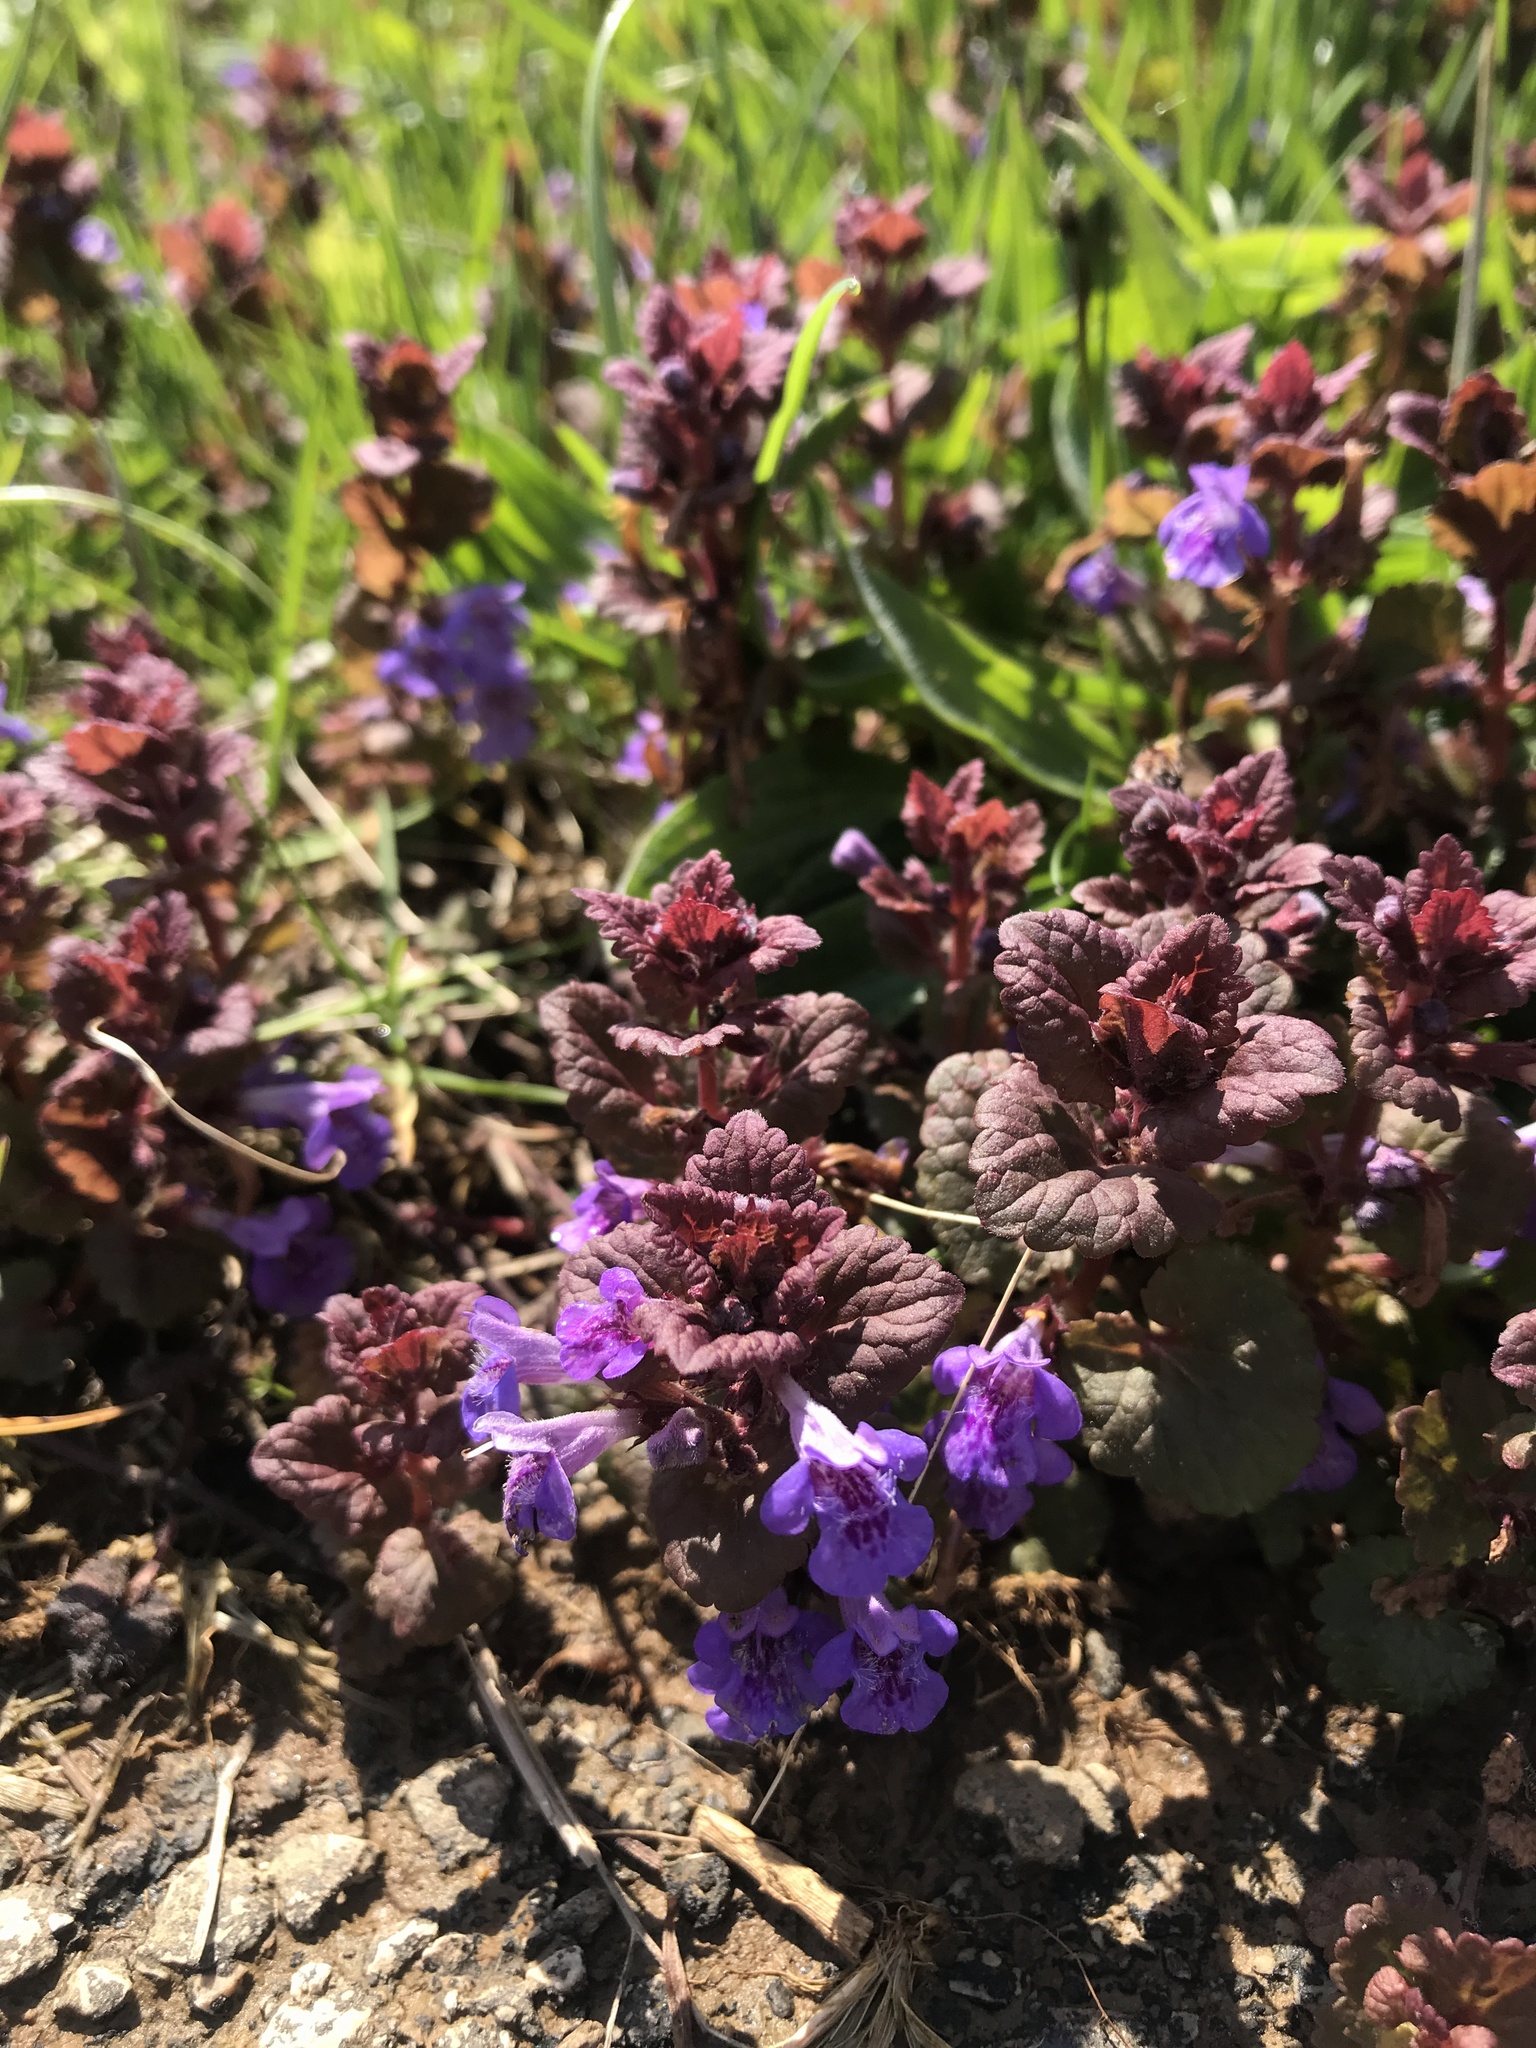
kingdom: Plantae
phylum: Tracheophyta
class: Magnoliopsida
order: Lamiales
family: Lamiaceae
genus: Glechoma
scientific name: Glechoma hederacea
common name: Ground ivy
